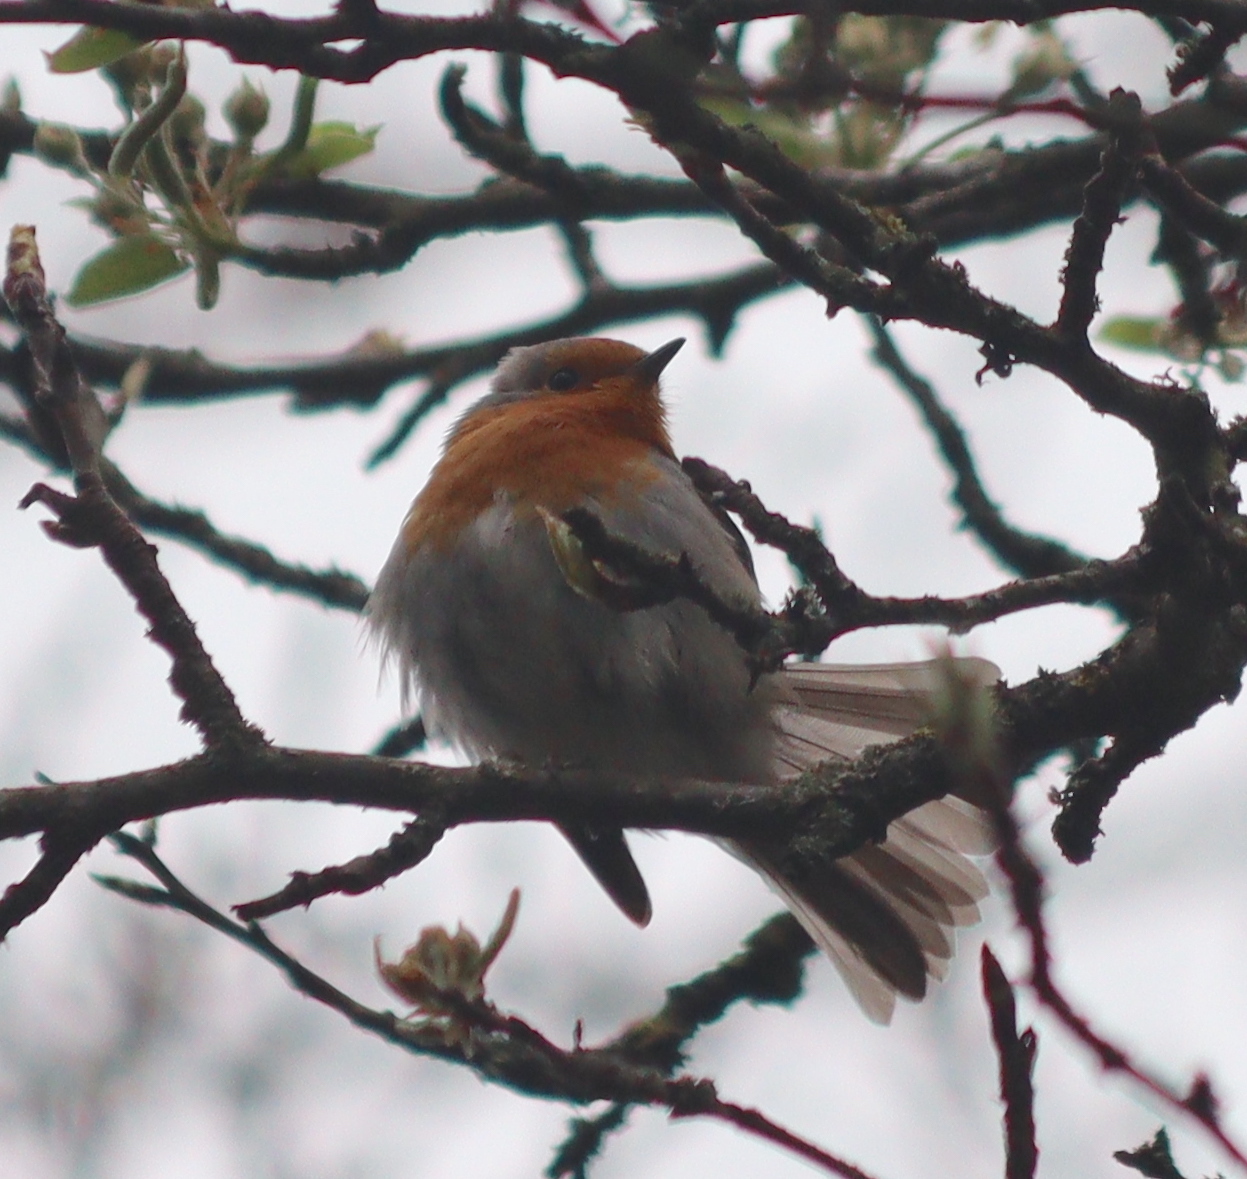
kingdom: Animalia
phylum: Chordata
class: Aves
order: Passeriformes
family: Muscicapidae
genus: Erithacus
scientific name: Erithacus rubecula
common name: European robin
